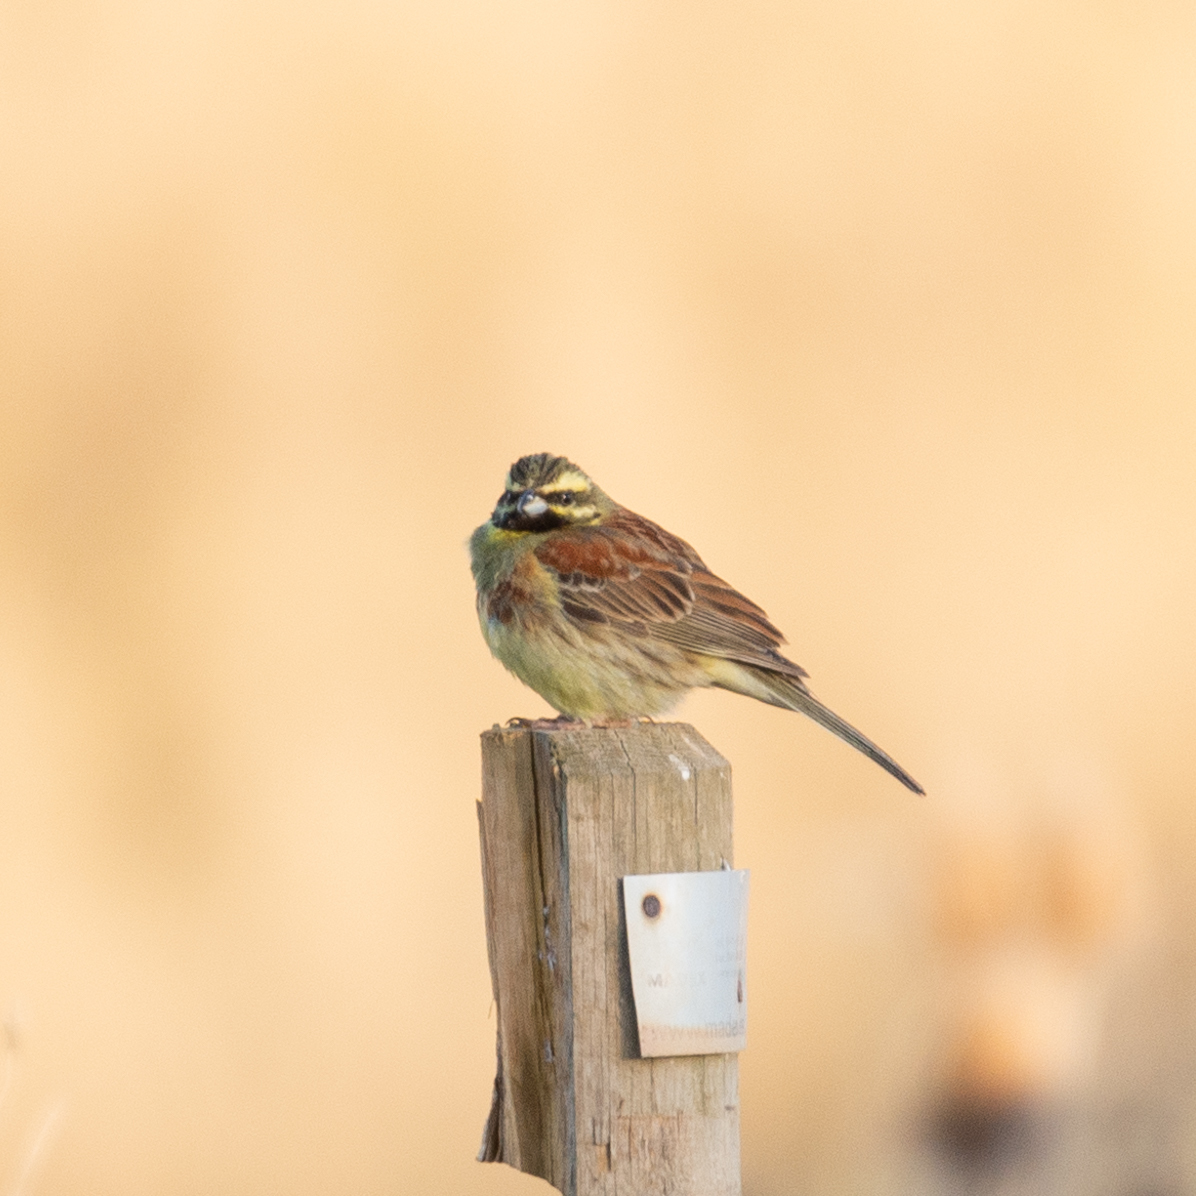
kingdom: Animalia
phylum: Chordata
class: Aves
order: Passeriformes
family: Emberizidae
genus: Emberiza
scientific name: Emberiza cirlus
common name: Cirl bunting
